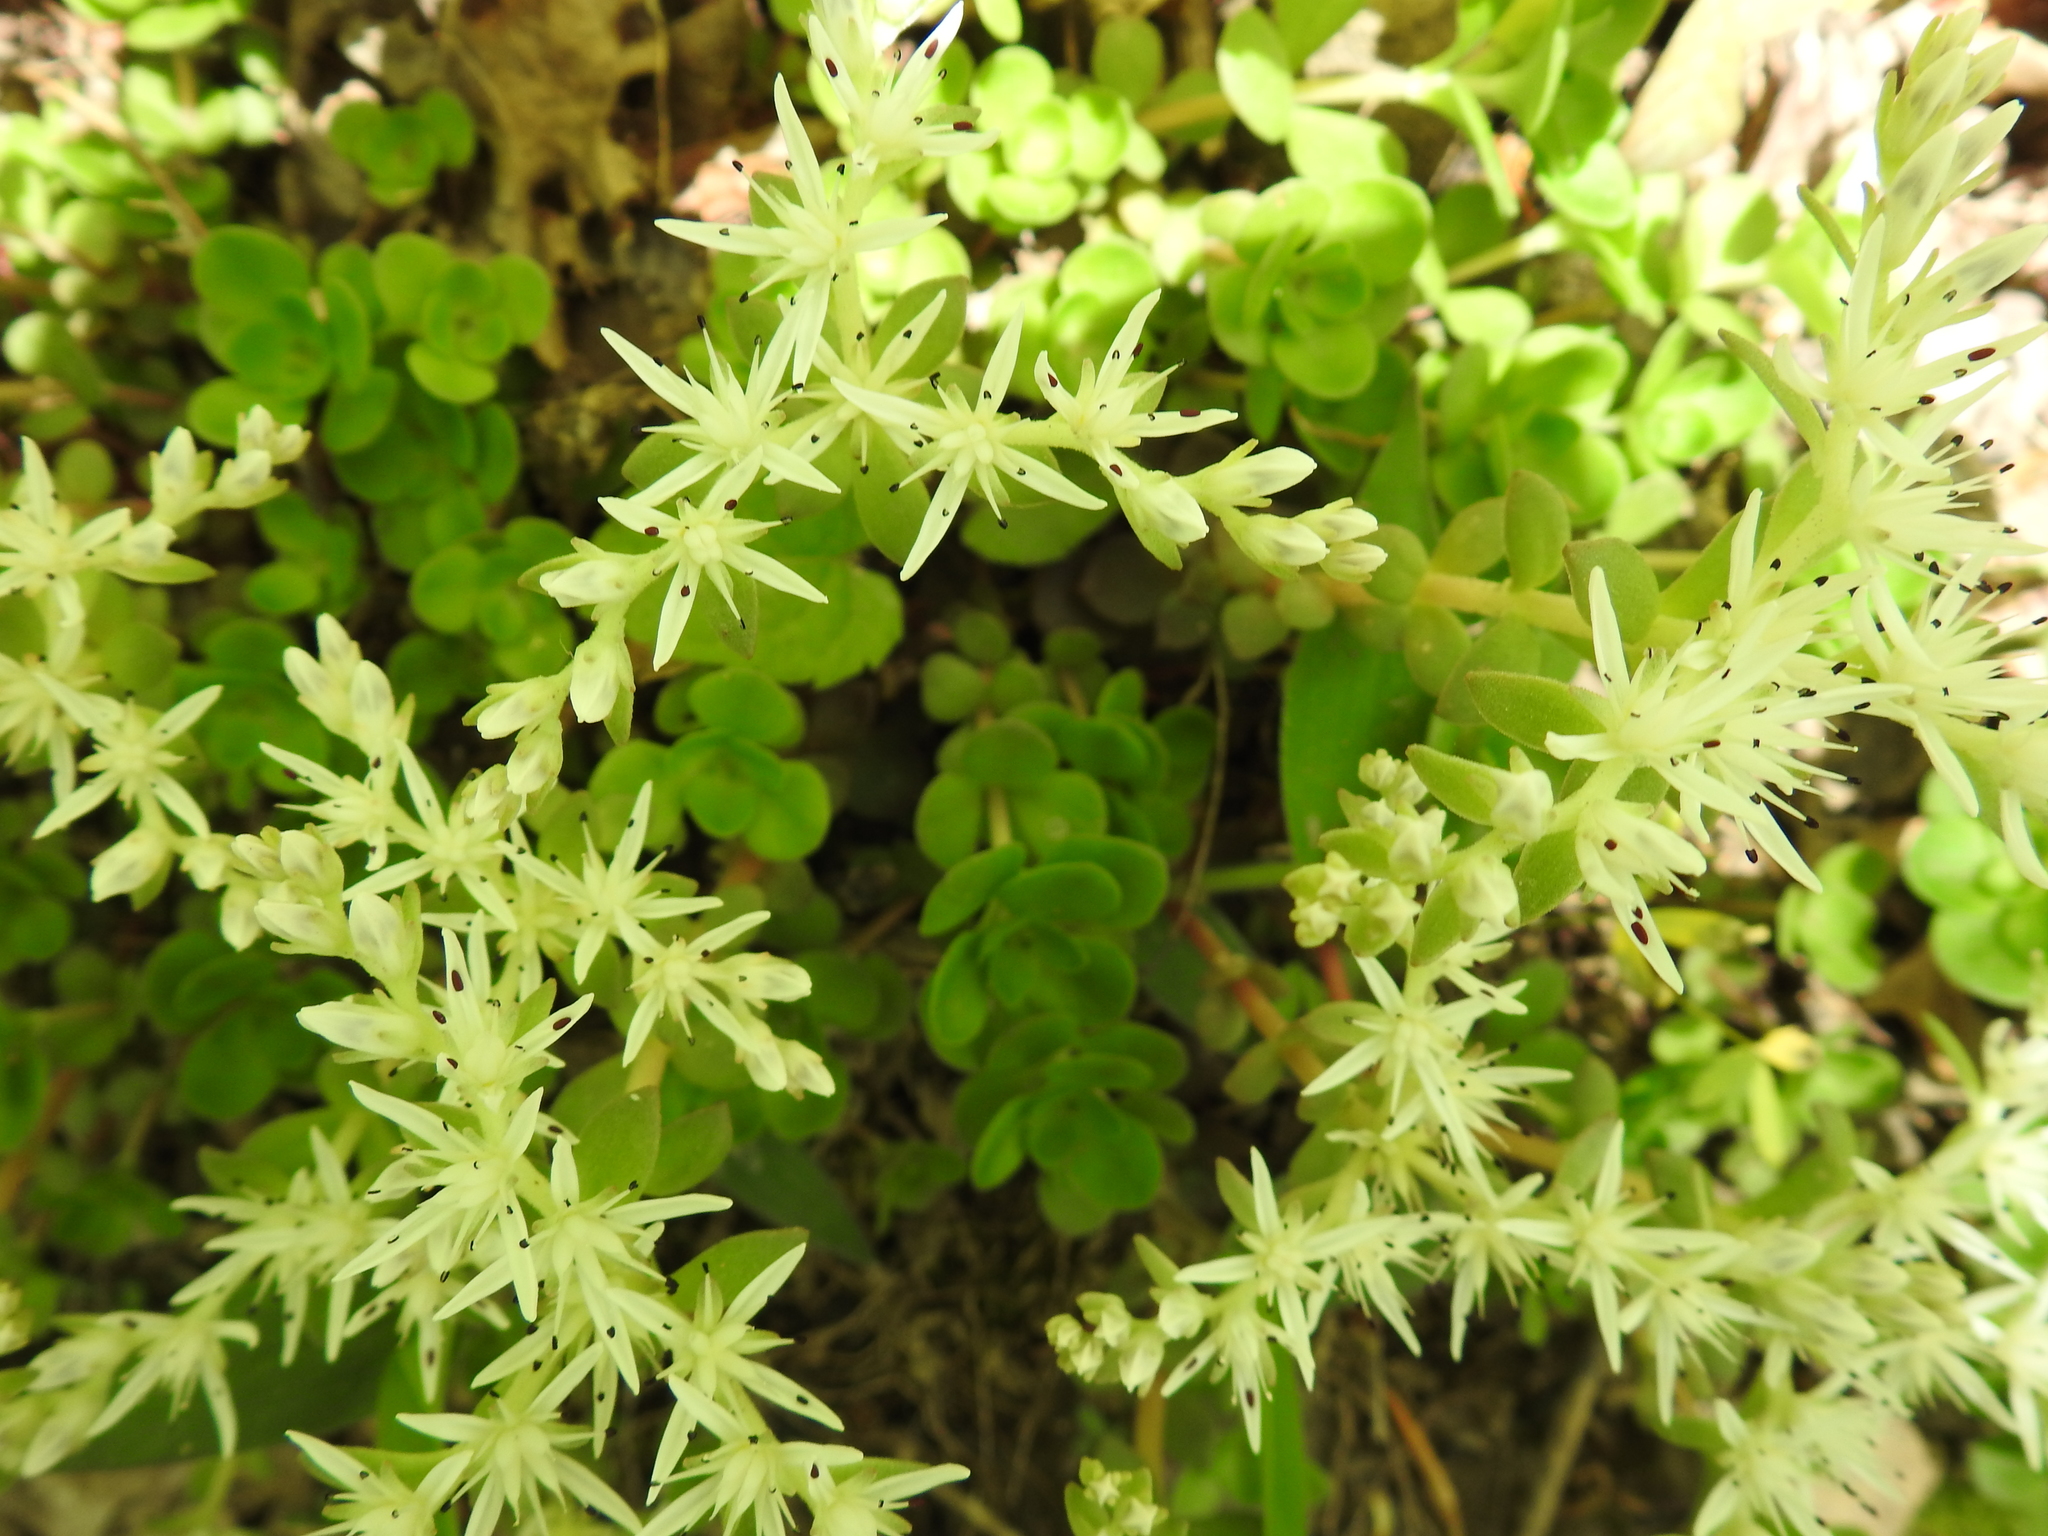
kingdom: Plantae
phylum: Tracheophyta
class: Magnoliopsida
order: Saxifragales
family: Crassulaceae
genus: Sedum
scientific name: Sedum ternatum
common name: Wild stonecrop
